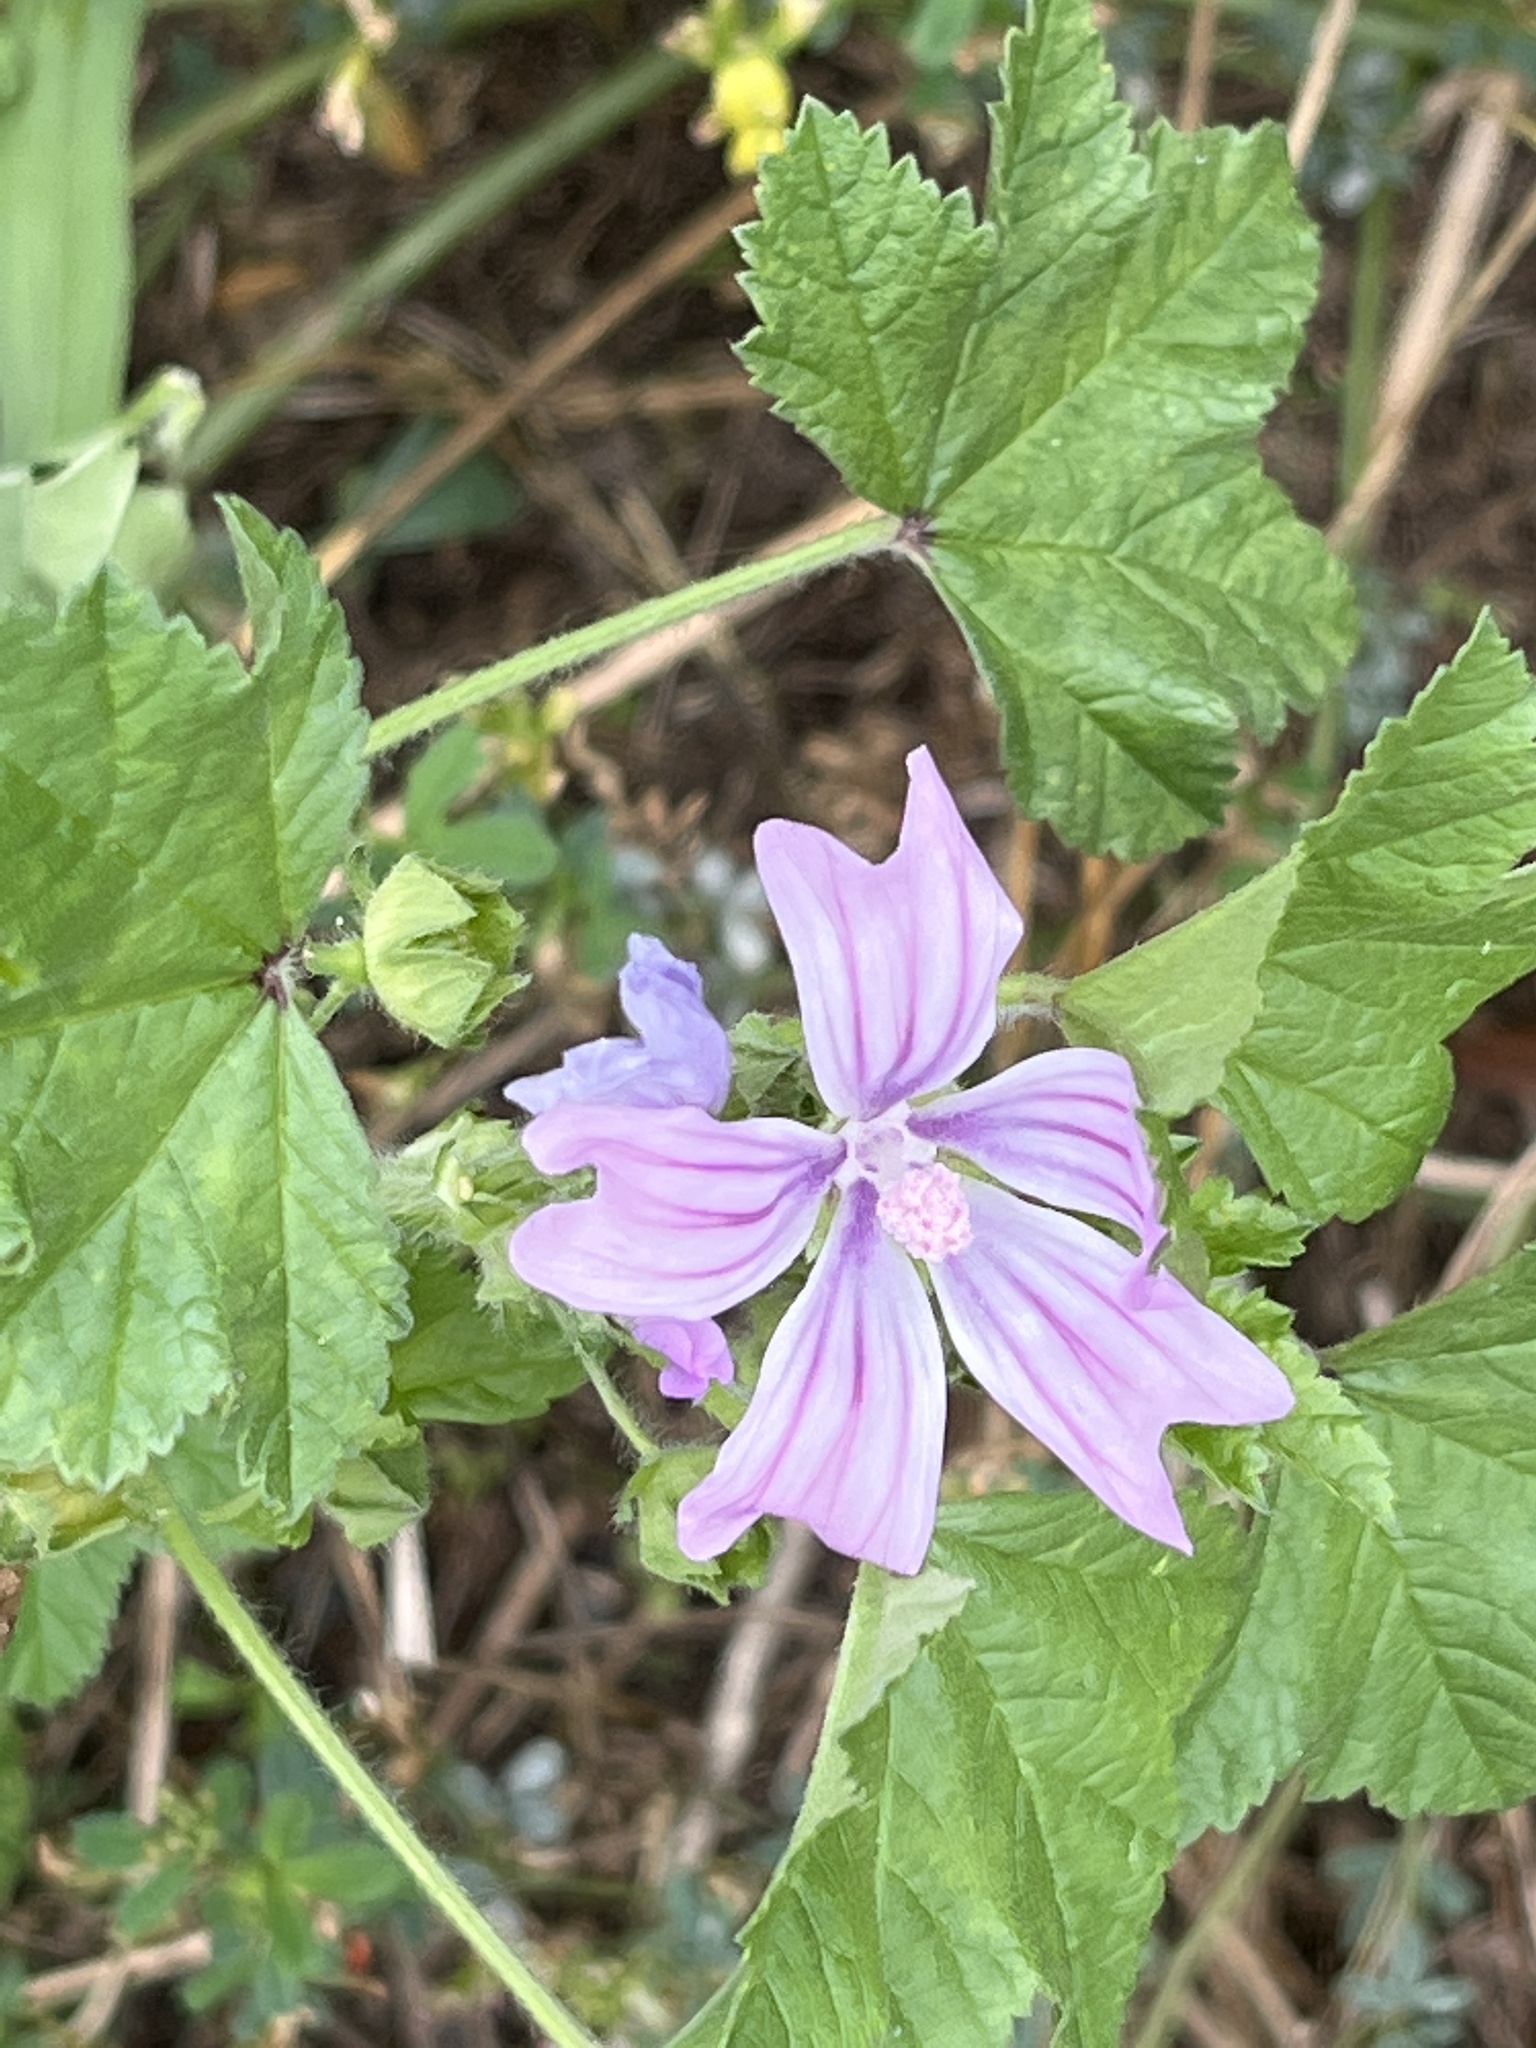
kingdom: Plantae
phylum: Tracheophyta
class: Magnoliopsida
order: Malvales
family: Malvaceae
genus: Malva
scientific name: Malva sylvestris
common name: Common mallow
